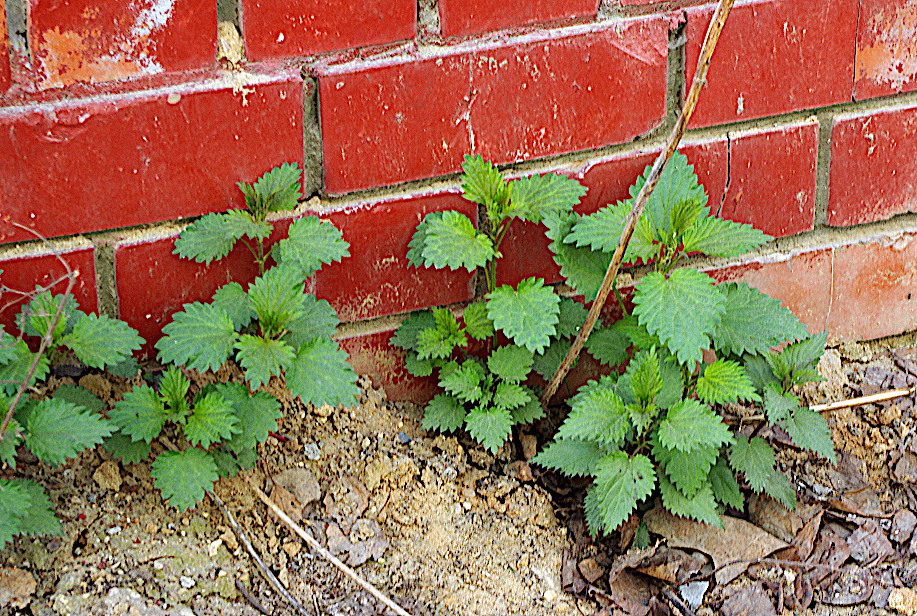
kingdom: Plantae
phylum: Tracheophyta
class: Magnoliopsida
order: Rosales
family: Urticaceae
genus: Urtica
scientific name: Urtica dioica
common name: Common nettle
